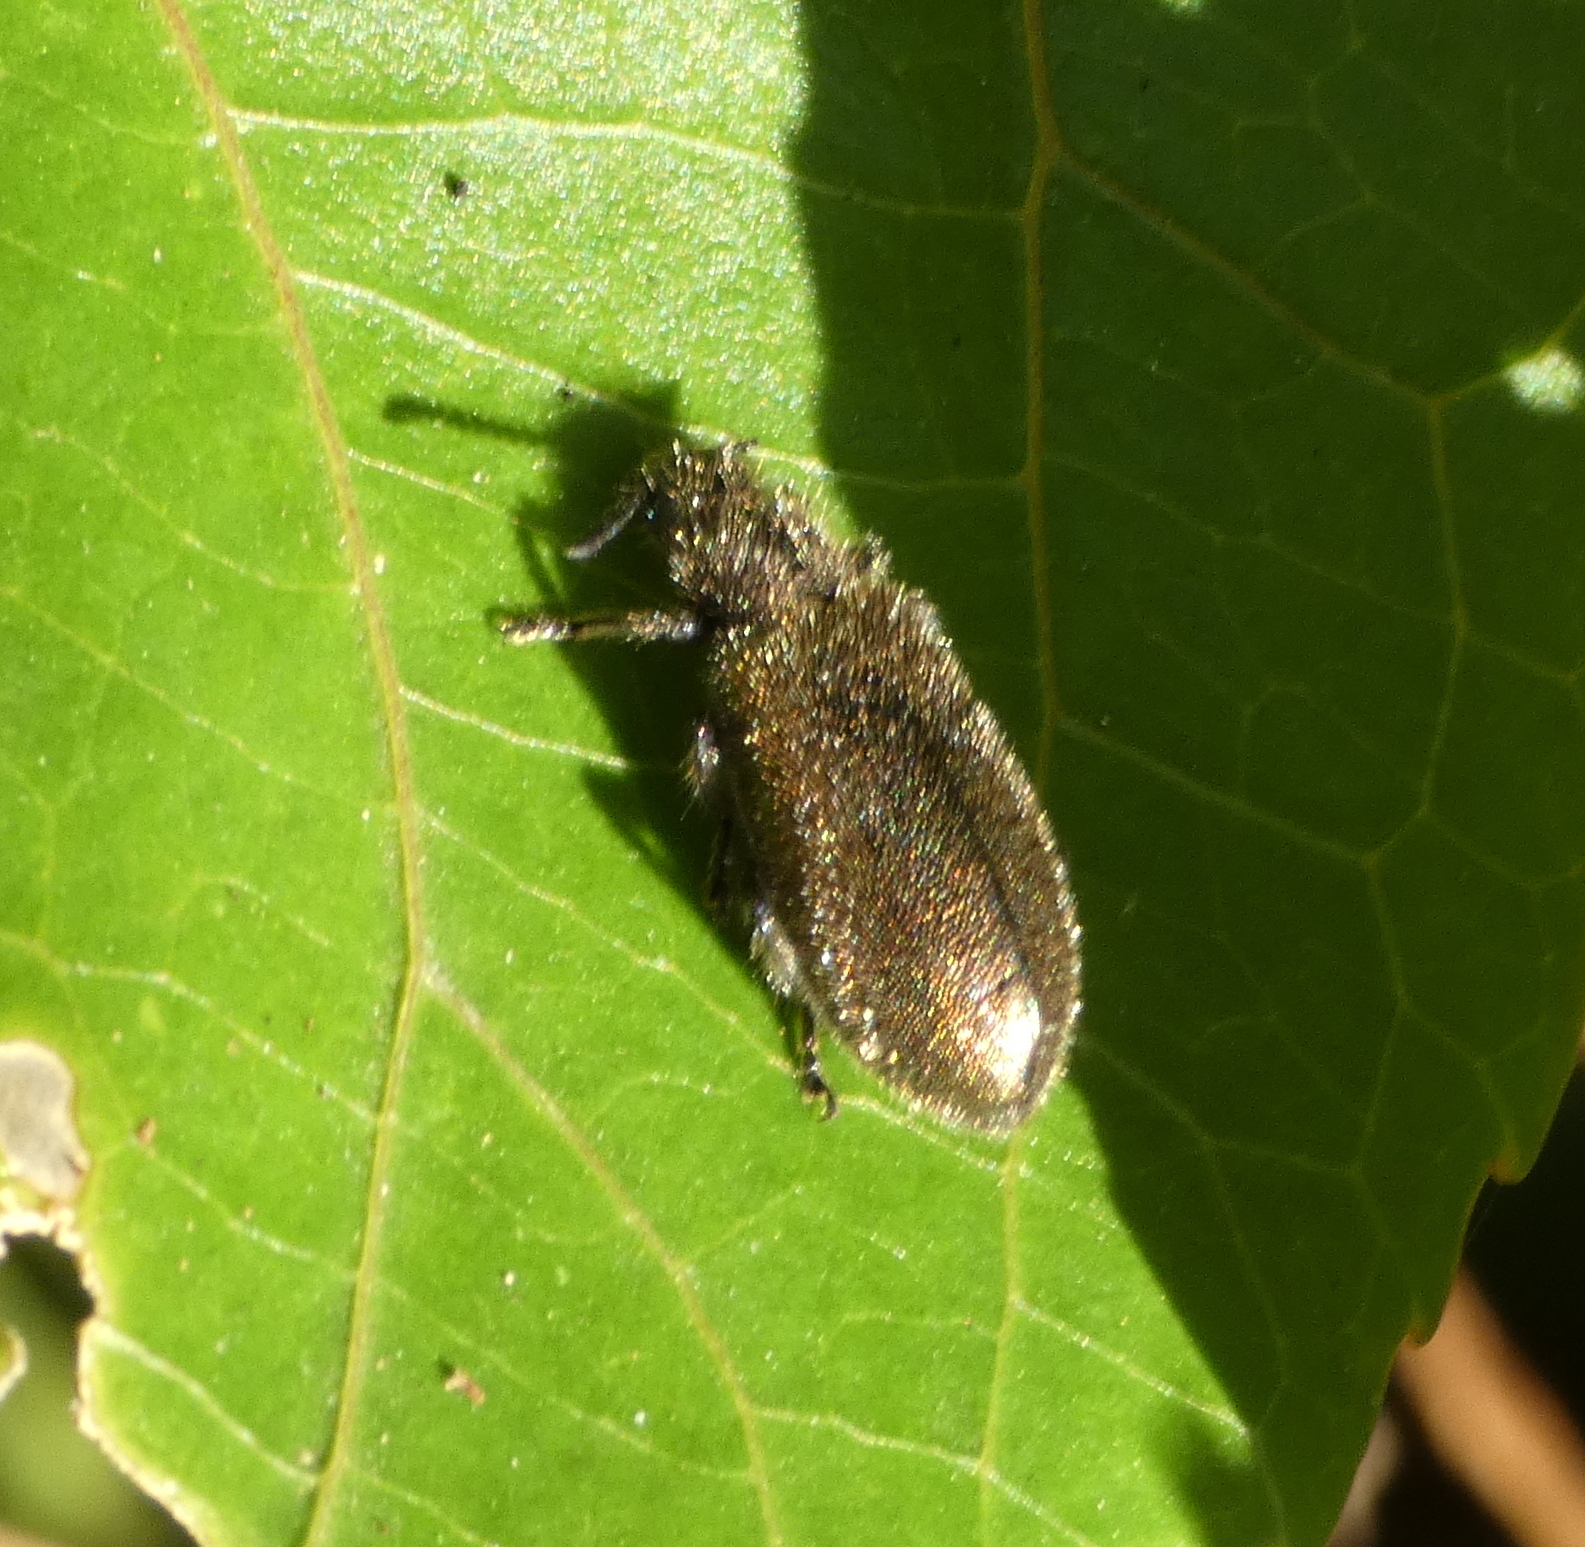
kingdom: Animalia
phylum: Arthropoda
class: Insecta
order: Coleoptera
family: Tenebrionidae
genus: Lagria
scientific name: Lagria villosa
